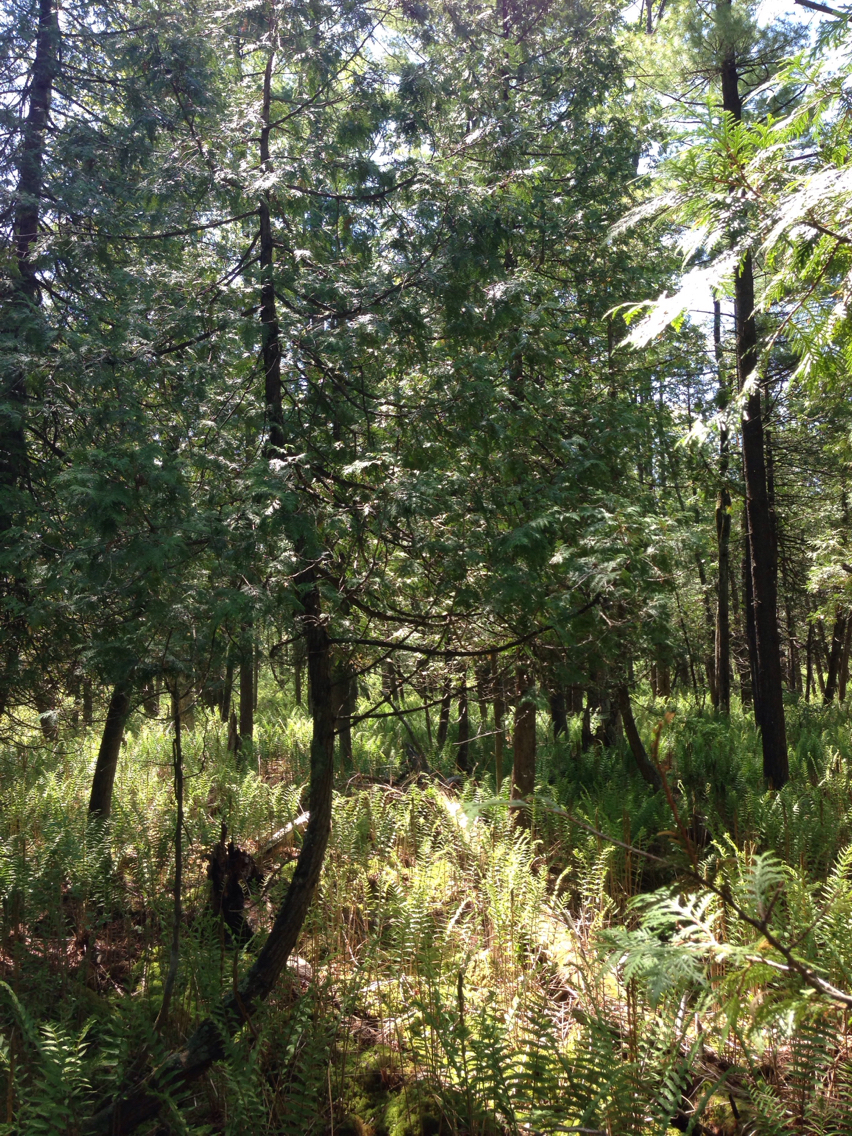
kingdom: Plantae
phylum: Tracheophyta
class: Pinopsida
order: Pinales
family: Cupressaceae
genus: Thuja
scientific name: Thuja occidentalis
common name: Northern white-cedar
